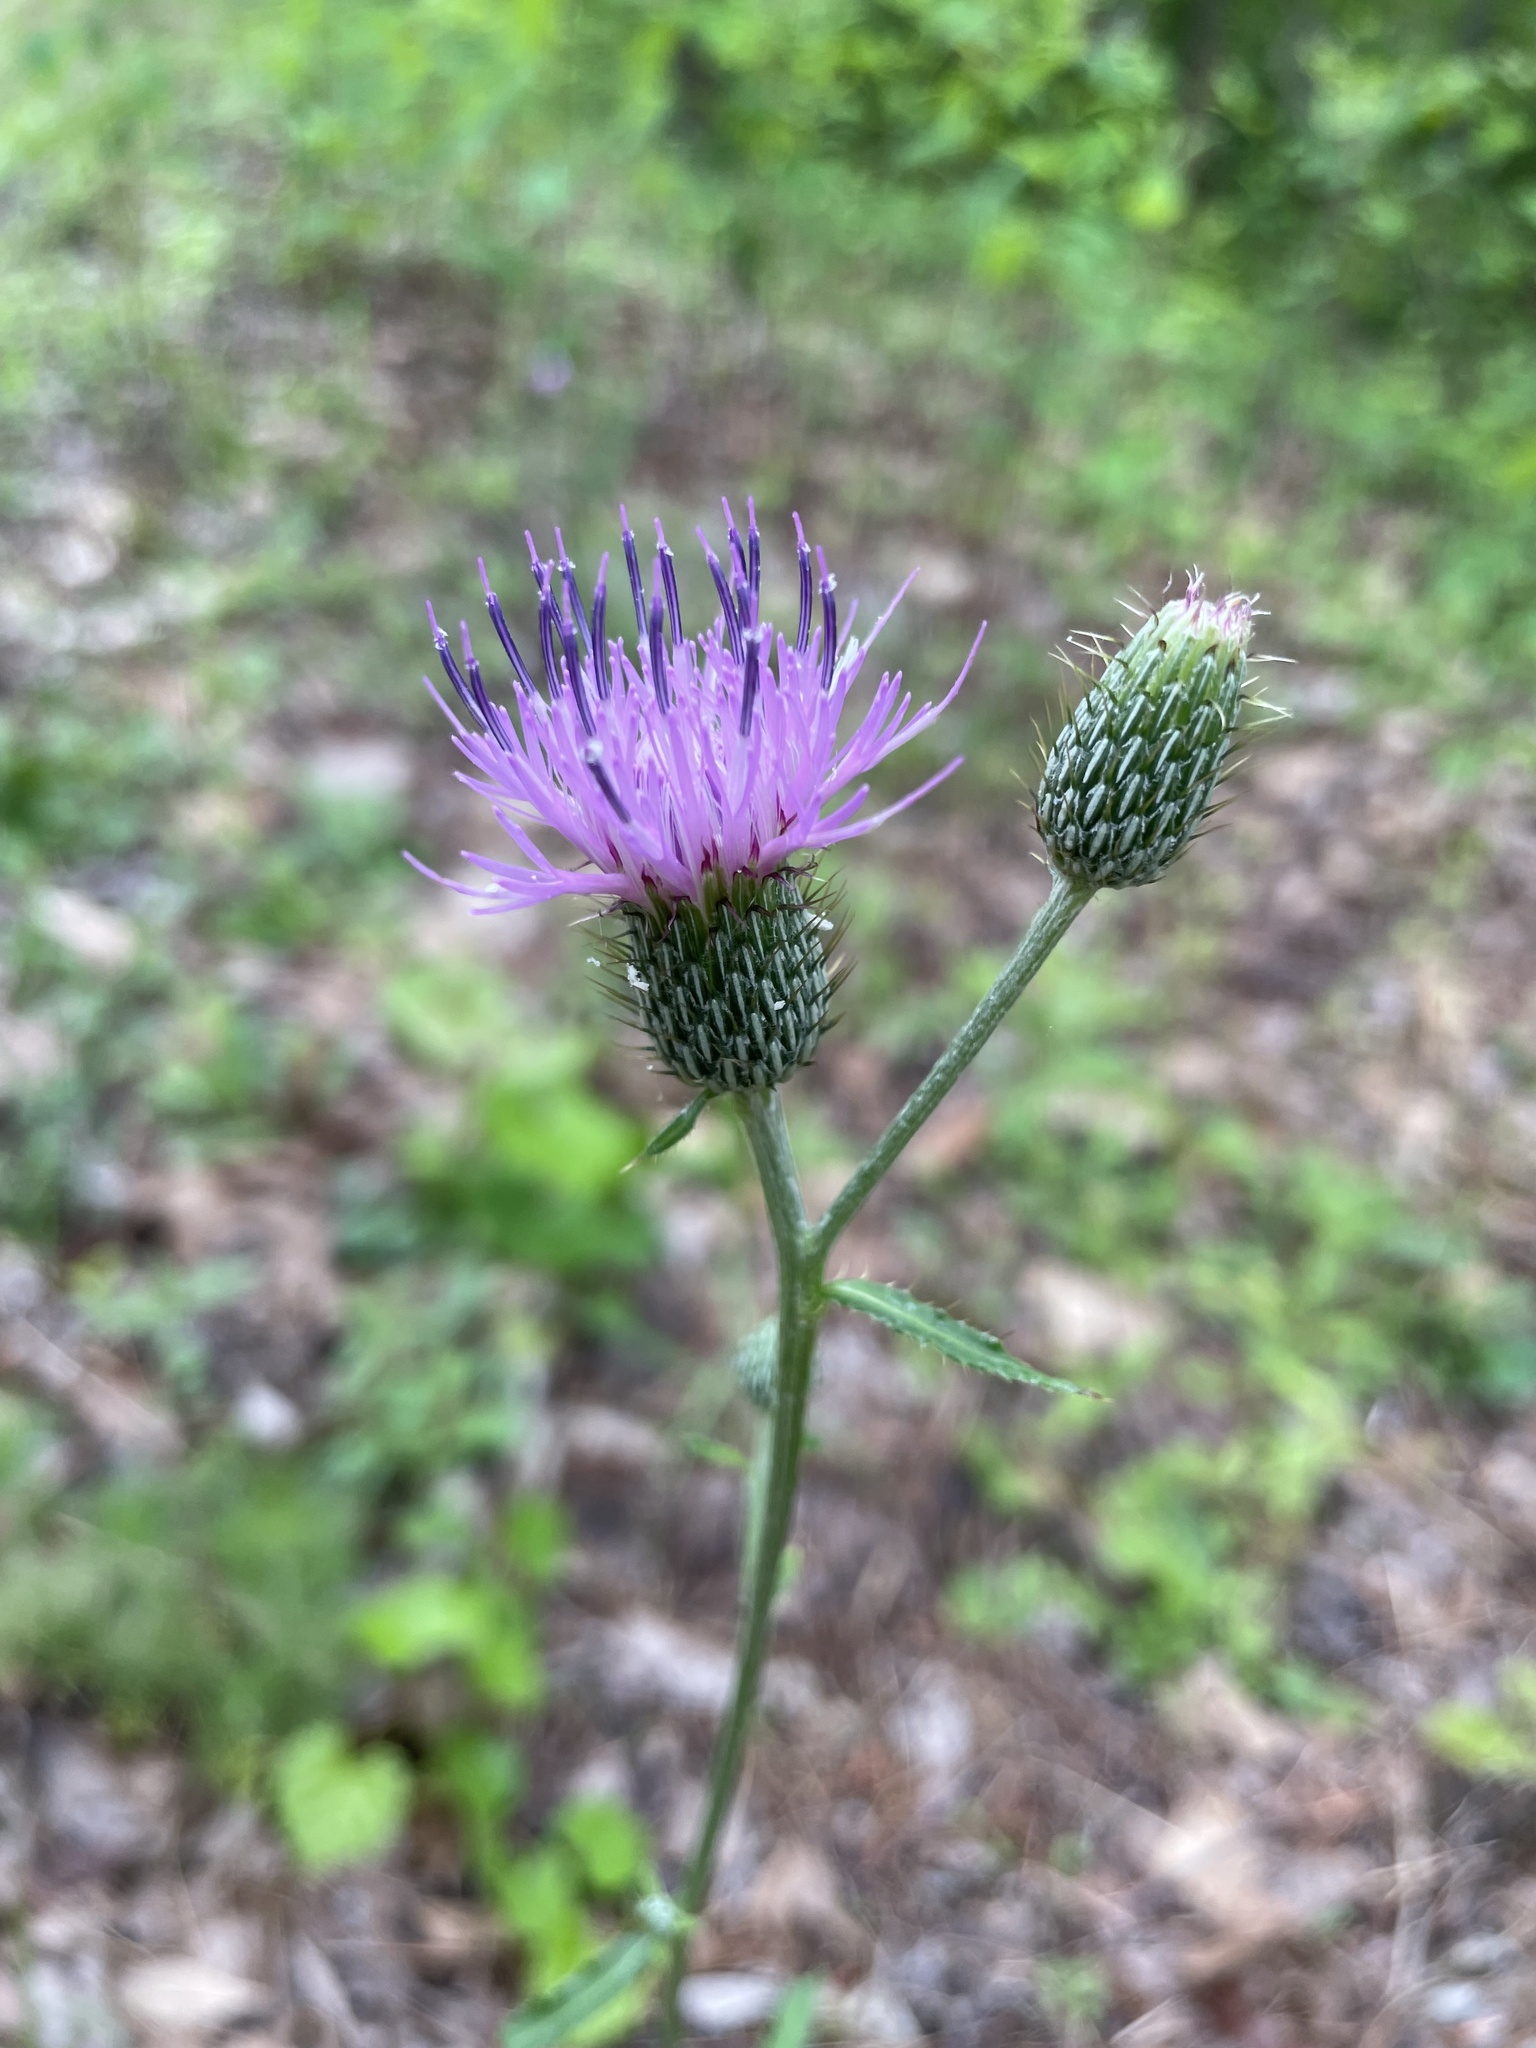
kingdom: Plantae
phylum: Tracheophyta
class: Magnoliopsida
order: Asterales
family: Asteraceae
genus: Cirsium
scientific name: Cirsium carolinianum
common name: Carolina thistle
